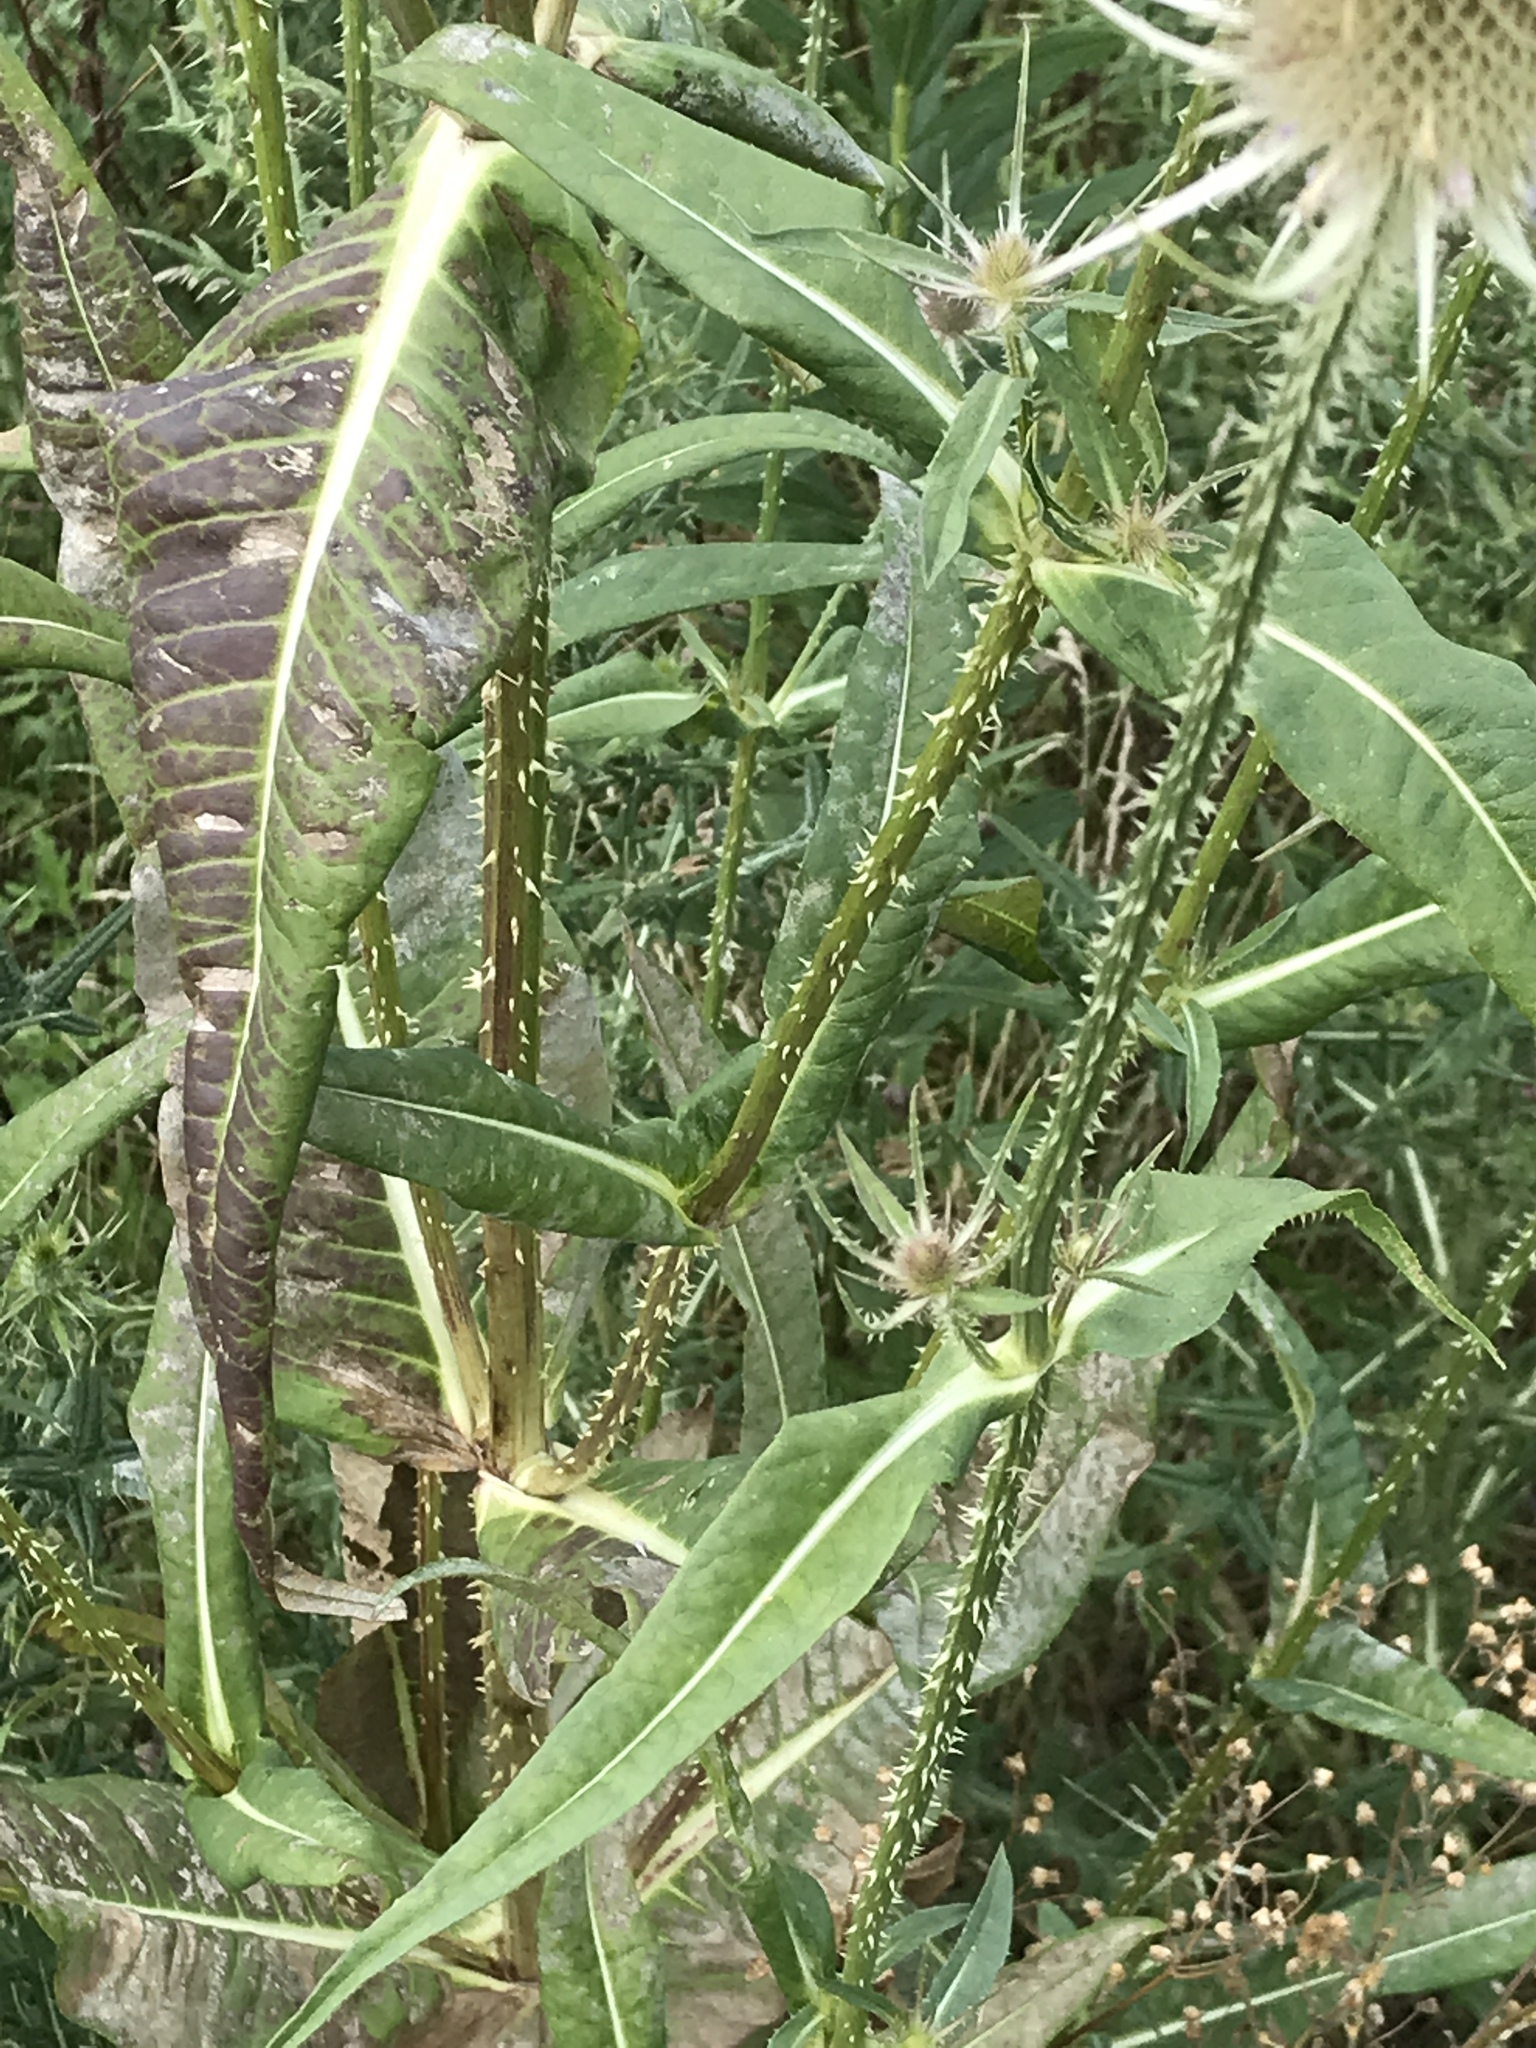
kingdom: Plantae
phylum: Tracheophyta
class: Magnoliopsida
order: Dipsacales
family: Caprifoliaceae
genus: Dipsacus
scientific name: Dipsacus fullonum
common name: Teasel
